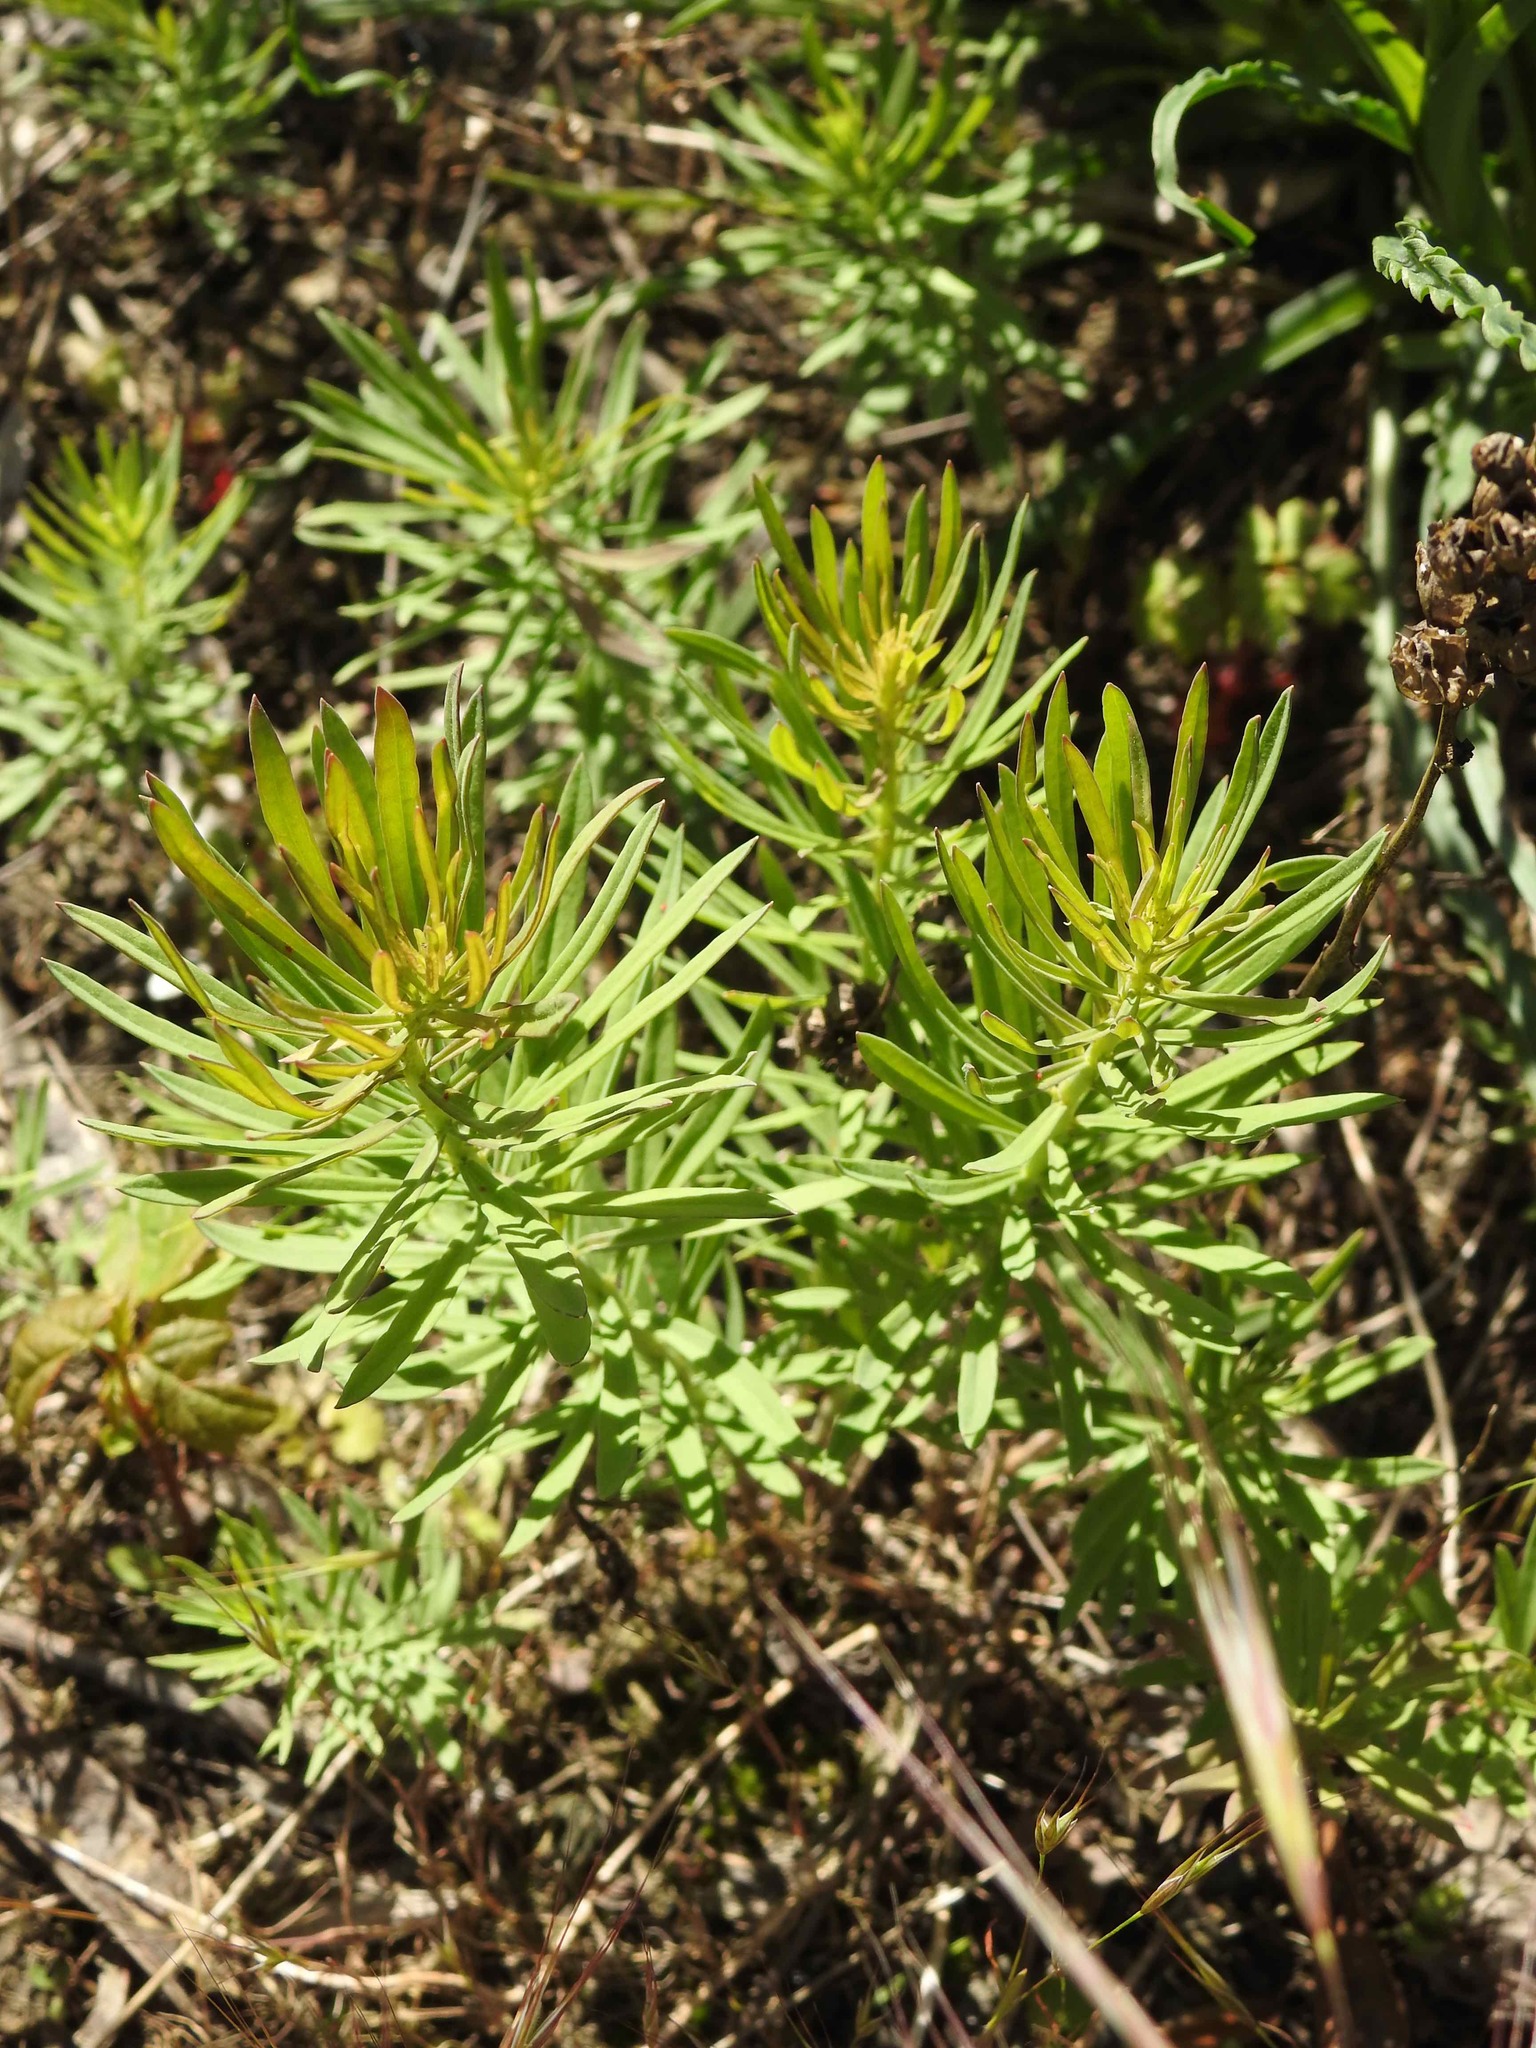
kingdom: Plantae
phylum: Tracheophyta
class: Magnoliopsida
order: Lamiales
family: Plantaginaceae
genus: Linaria
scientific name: Linaria vulgaris
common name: Butter and eggs
